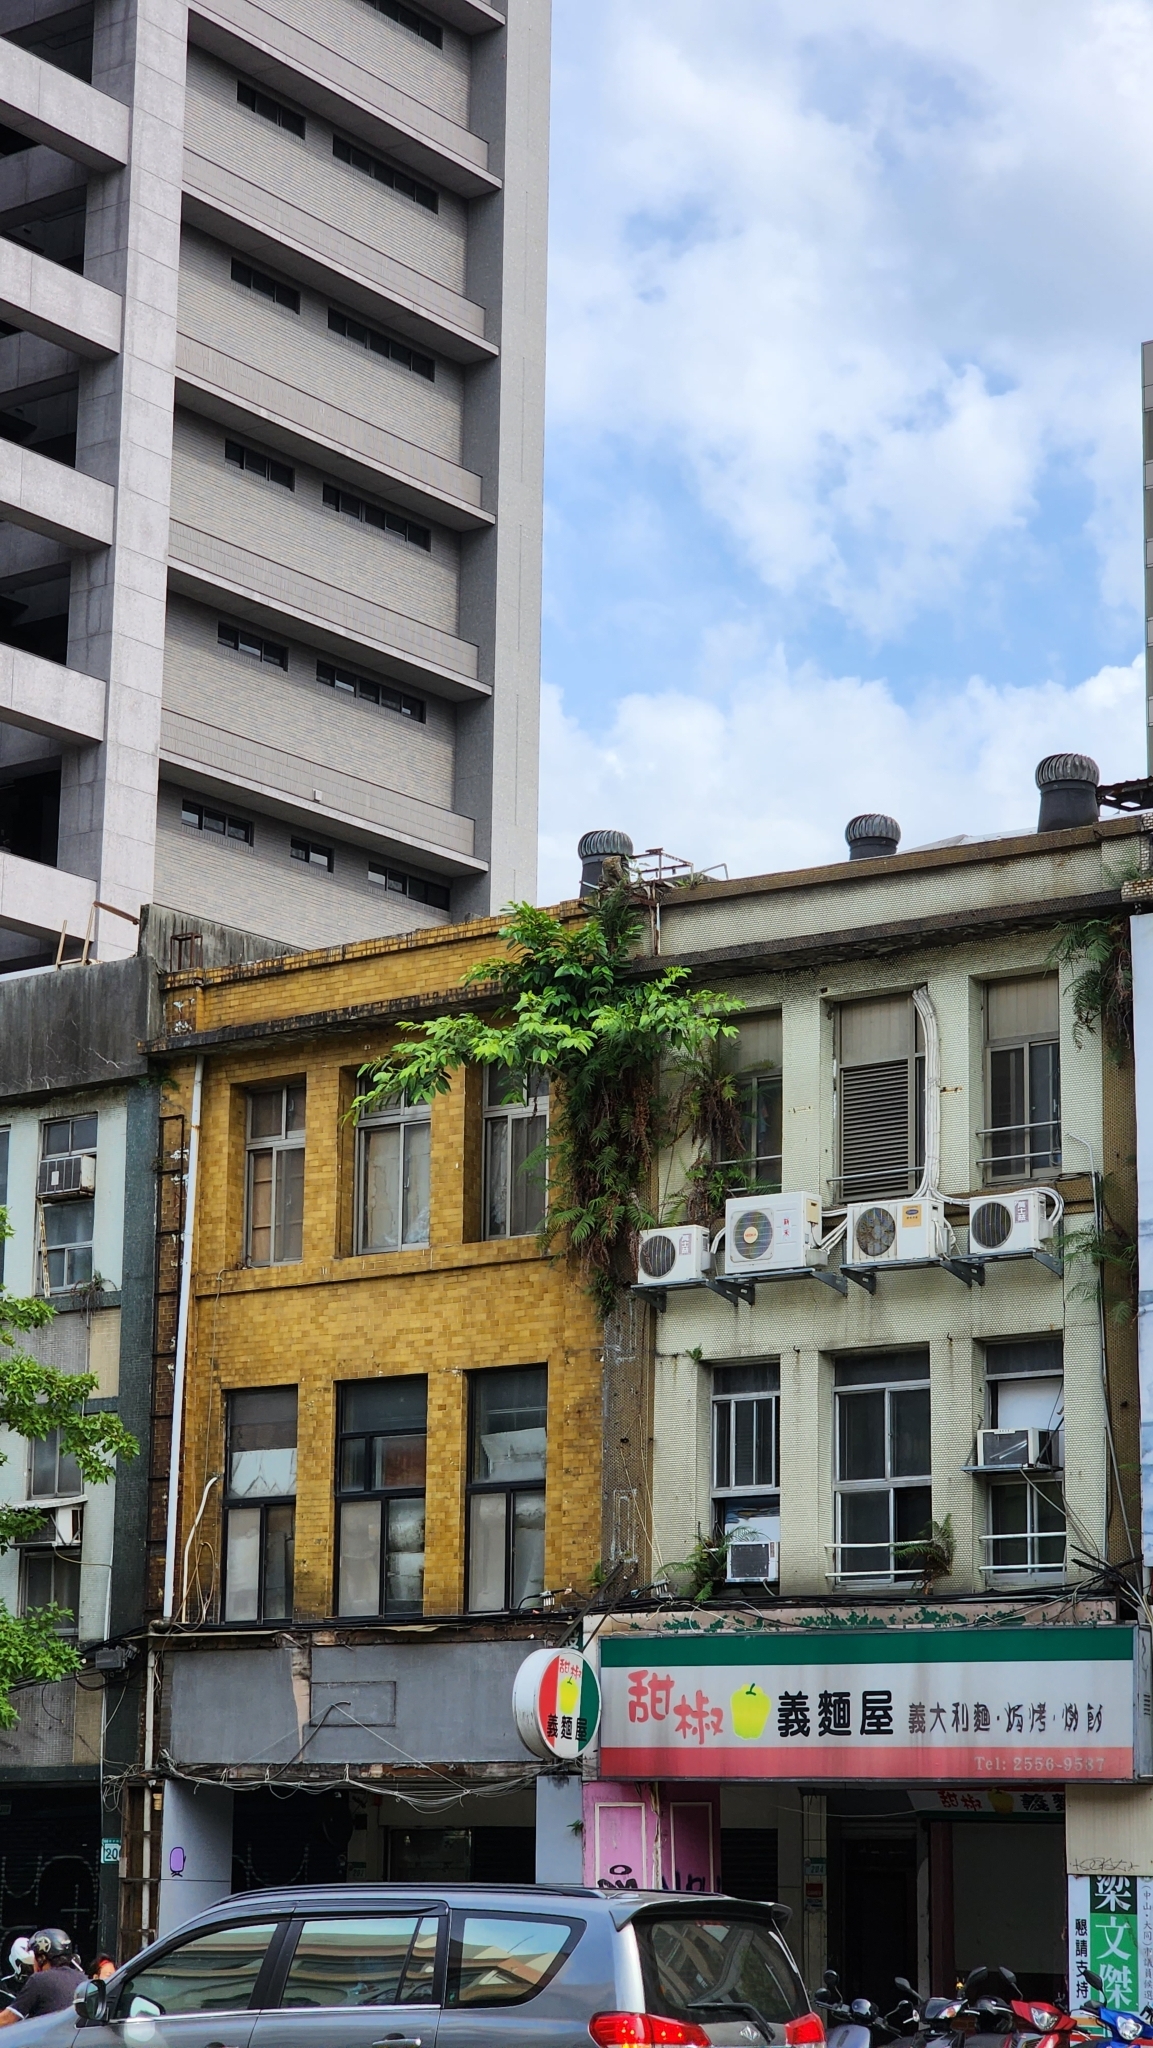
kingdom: Plantae
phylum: Tracheophyta
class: Magnoliopsida
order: Rosales
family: Moraceae
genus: Ficus
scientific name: Ficus virgata
